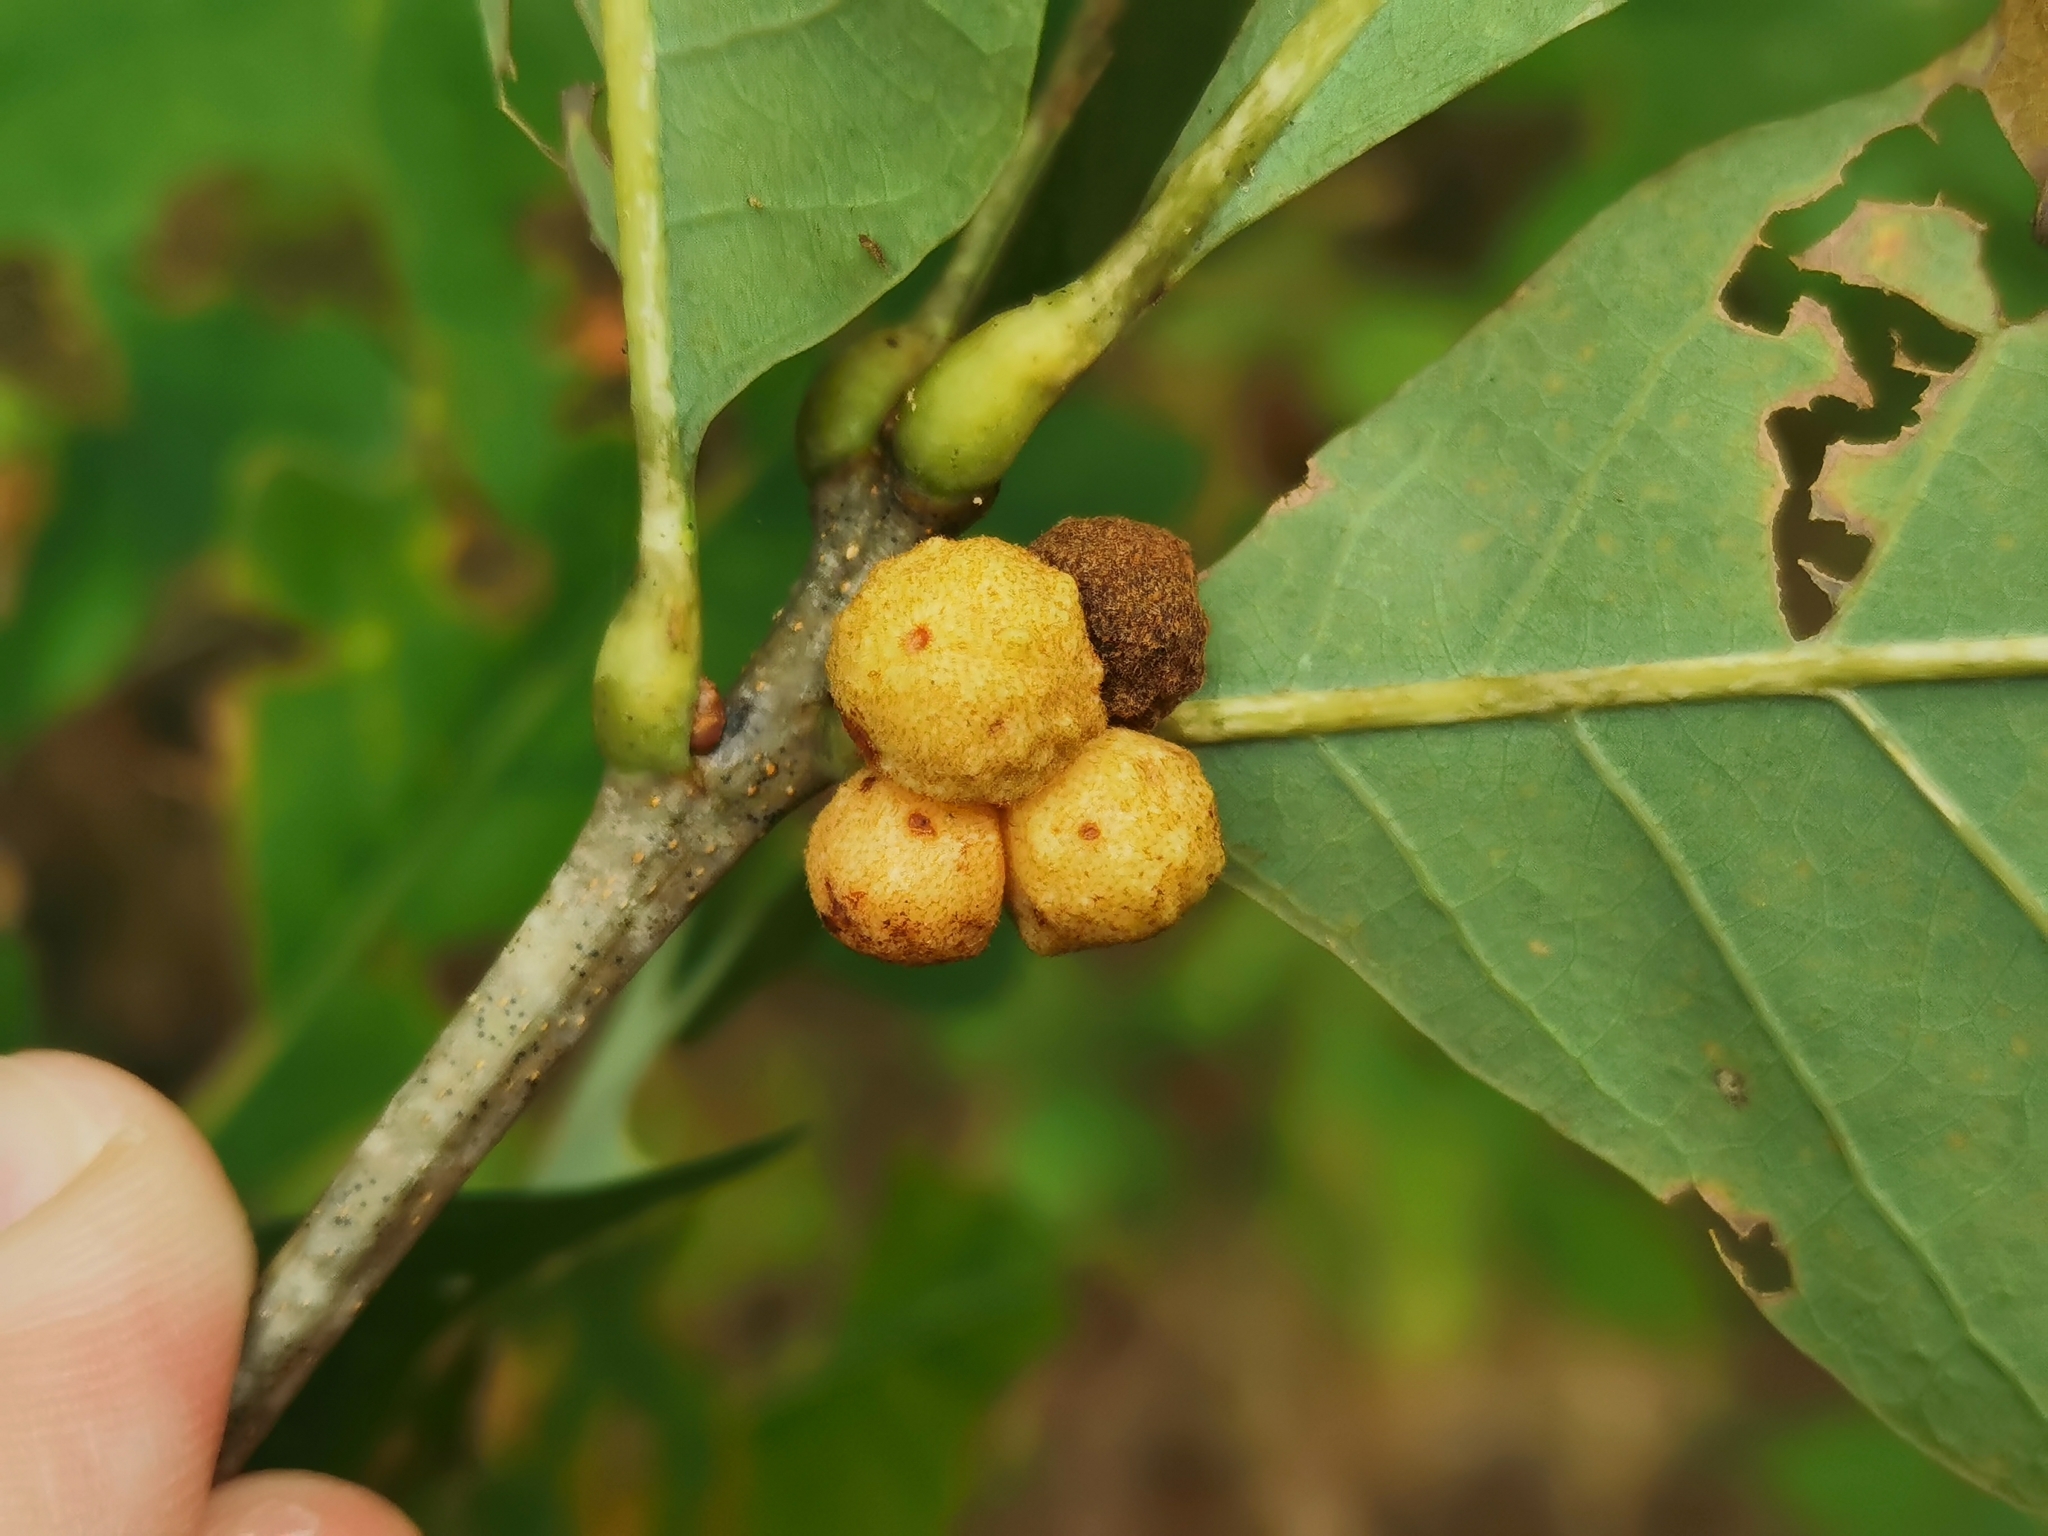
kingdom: Animalia
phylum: Arthropoda
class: Insecta
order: Hymenoptera
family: Cynipidae
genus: Andricus
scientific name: Andricus
